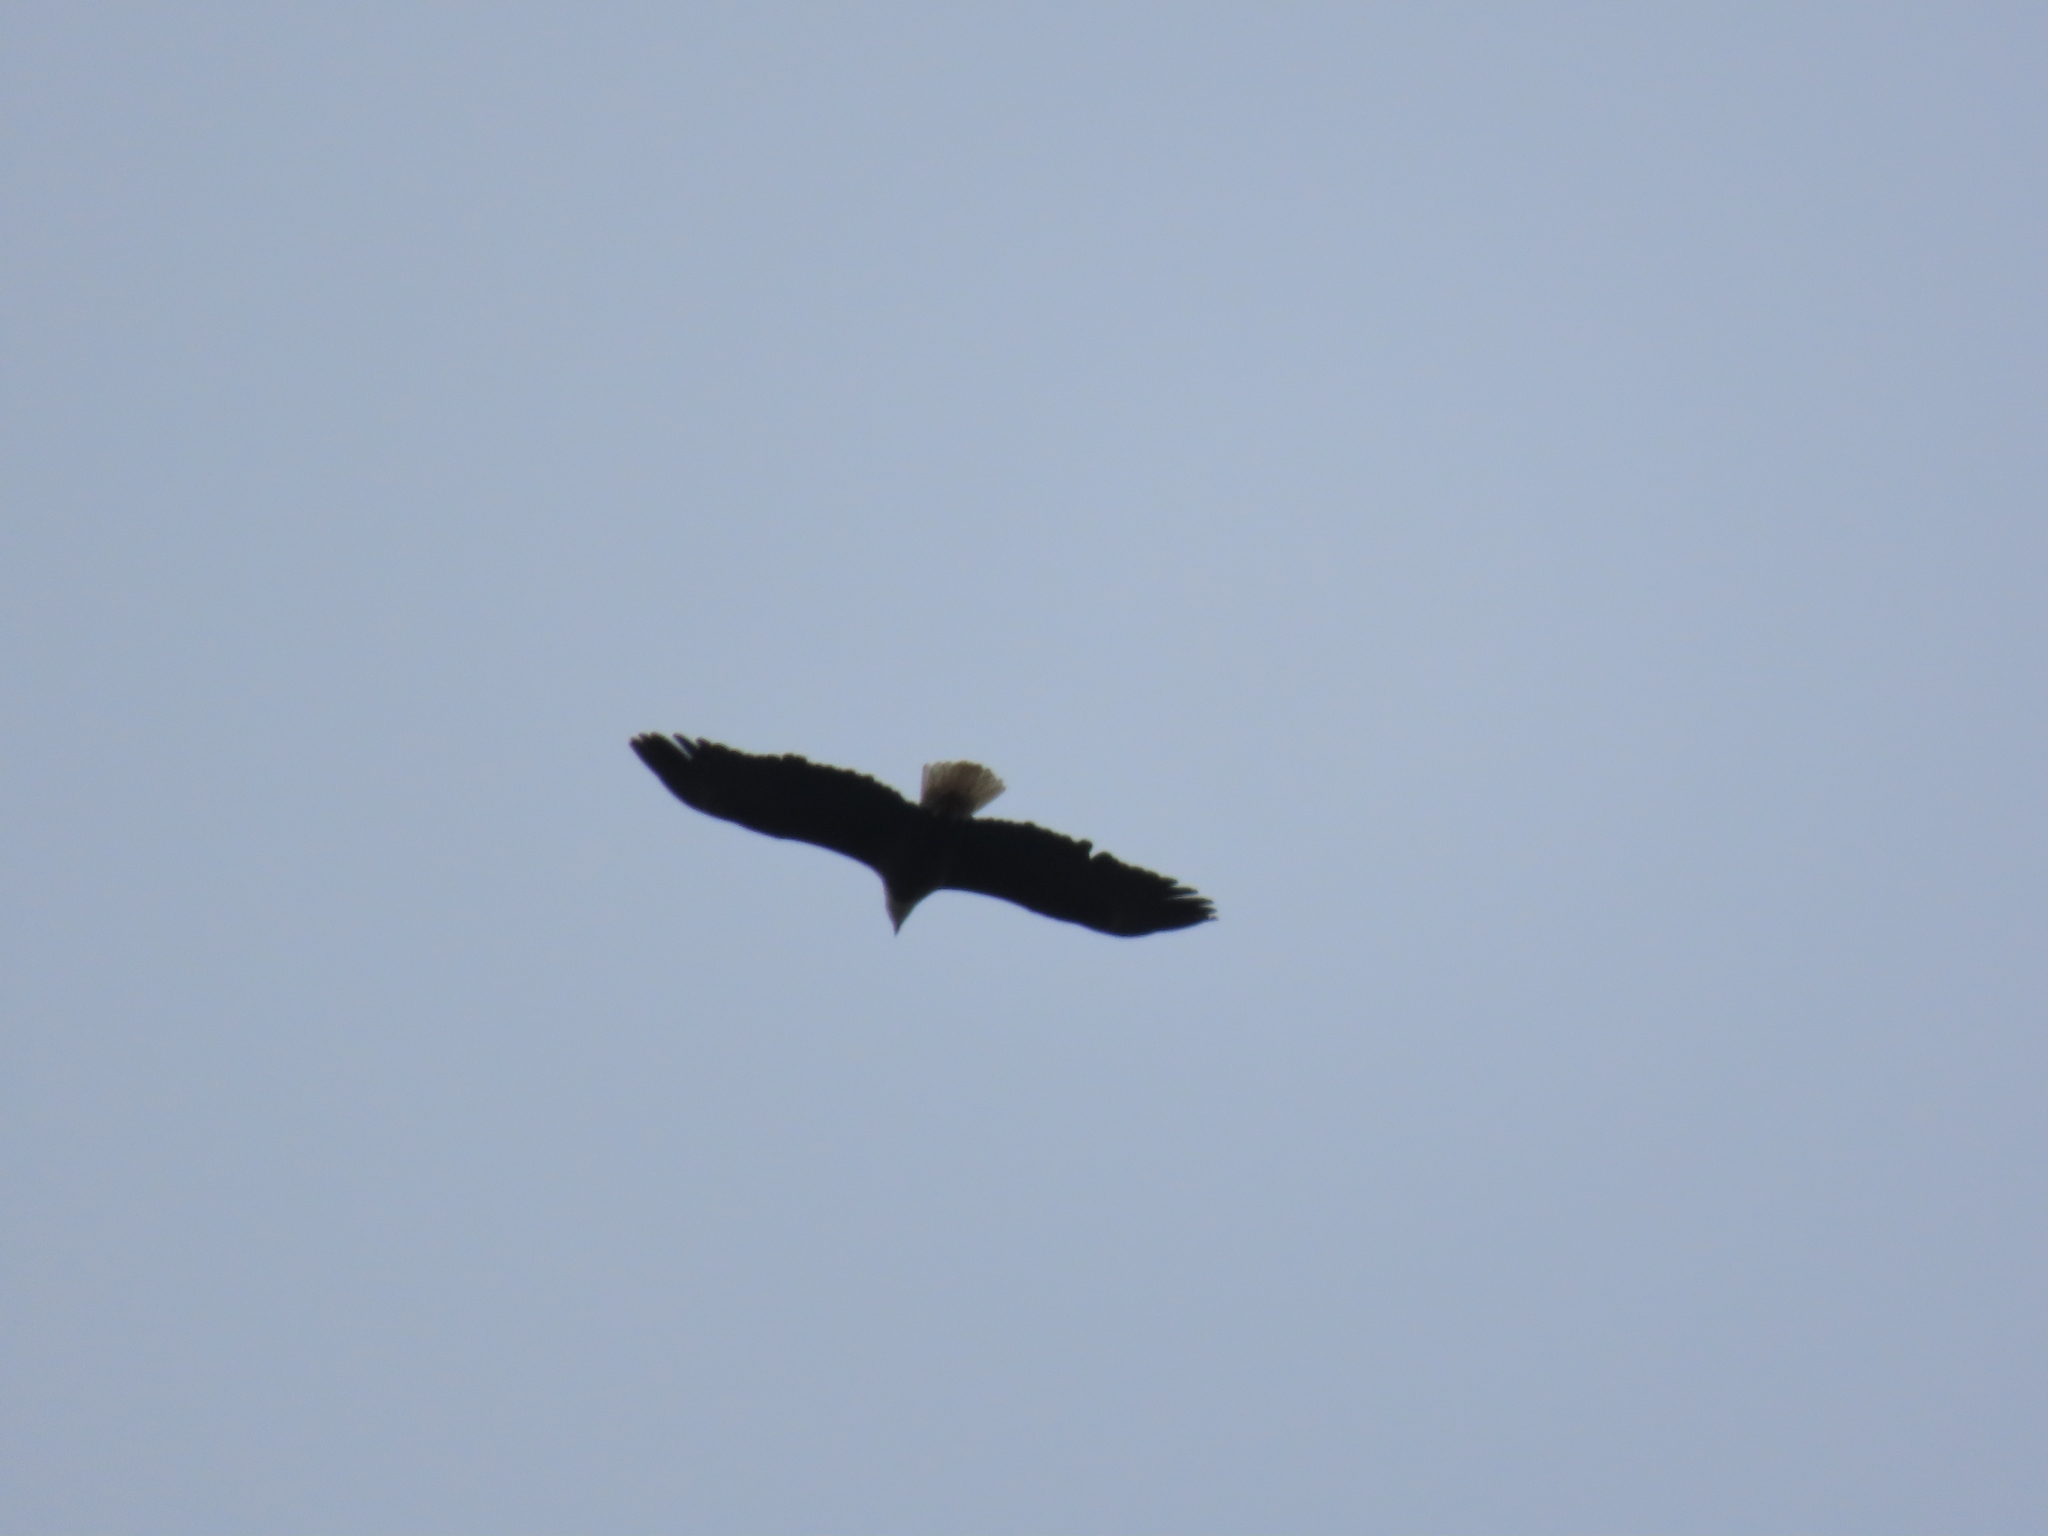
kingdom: Animalia
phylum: Chordata
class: Aves
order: Accipitriformes
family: Accipitridae
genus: Haliaeetus
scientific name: Haliaeetus leucocephalus
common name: Bald eagle
